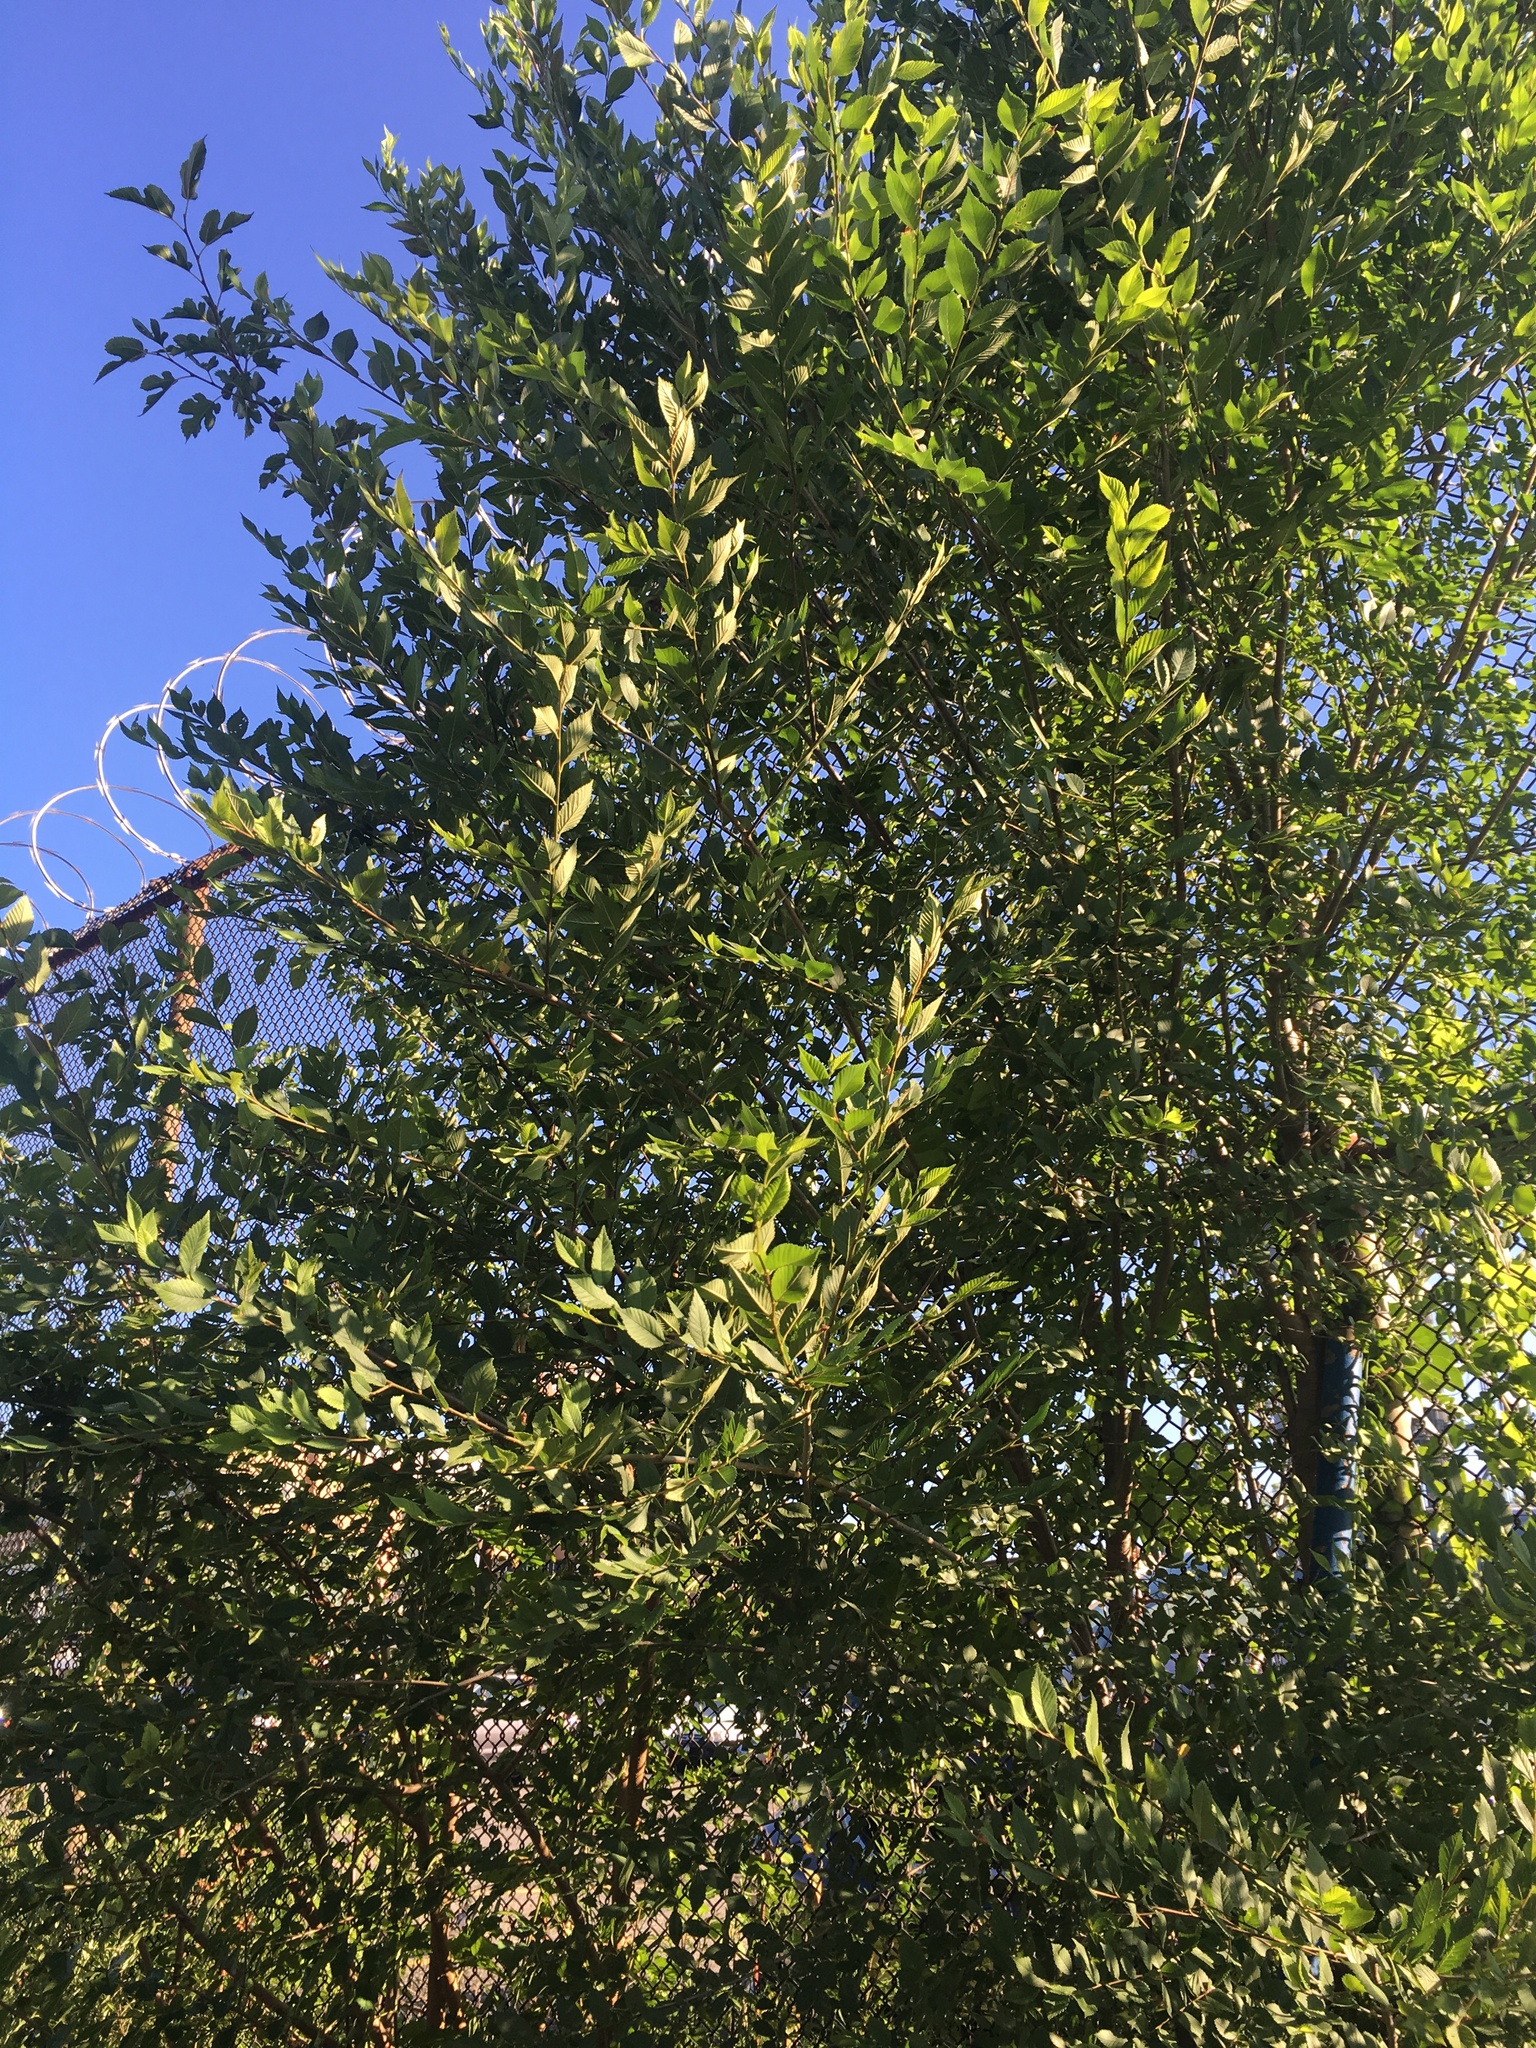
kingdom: Plantae
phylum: Tracheophyta
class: Magnoliopsida
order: Rosales
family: Ulmaceae
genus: Ulmus
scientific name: Ulmus pumila
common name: Siberian elm
